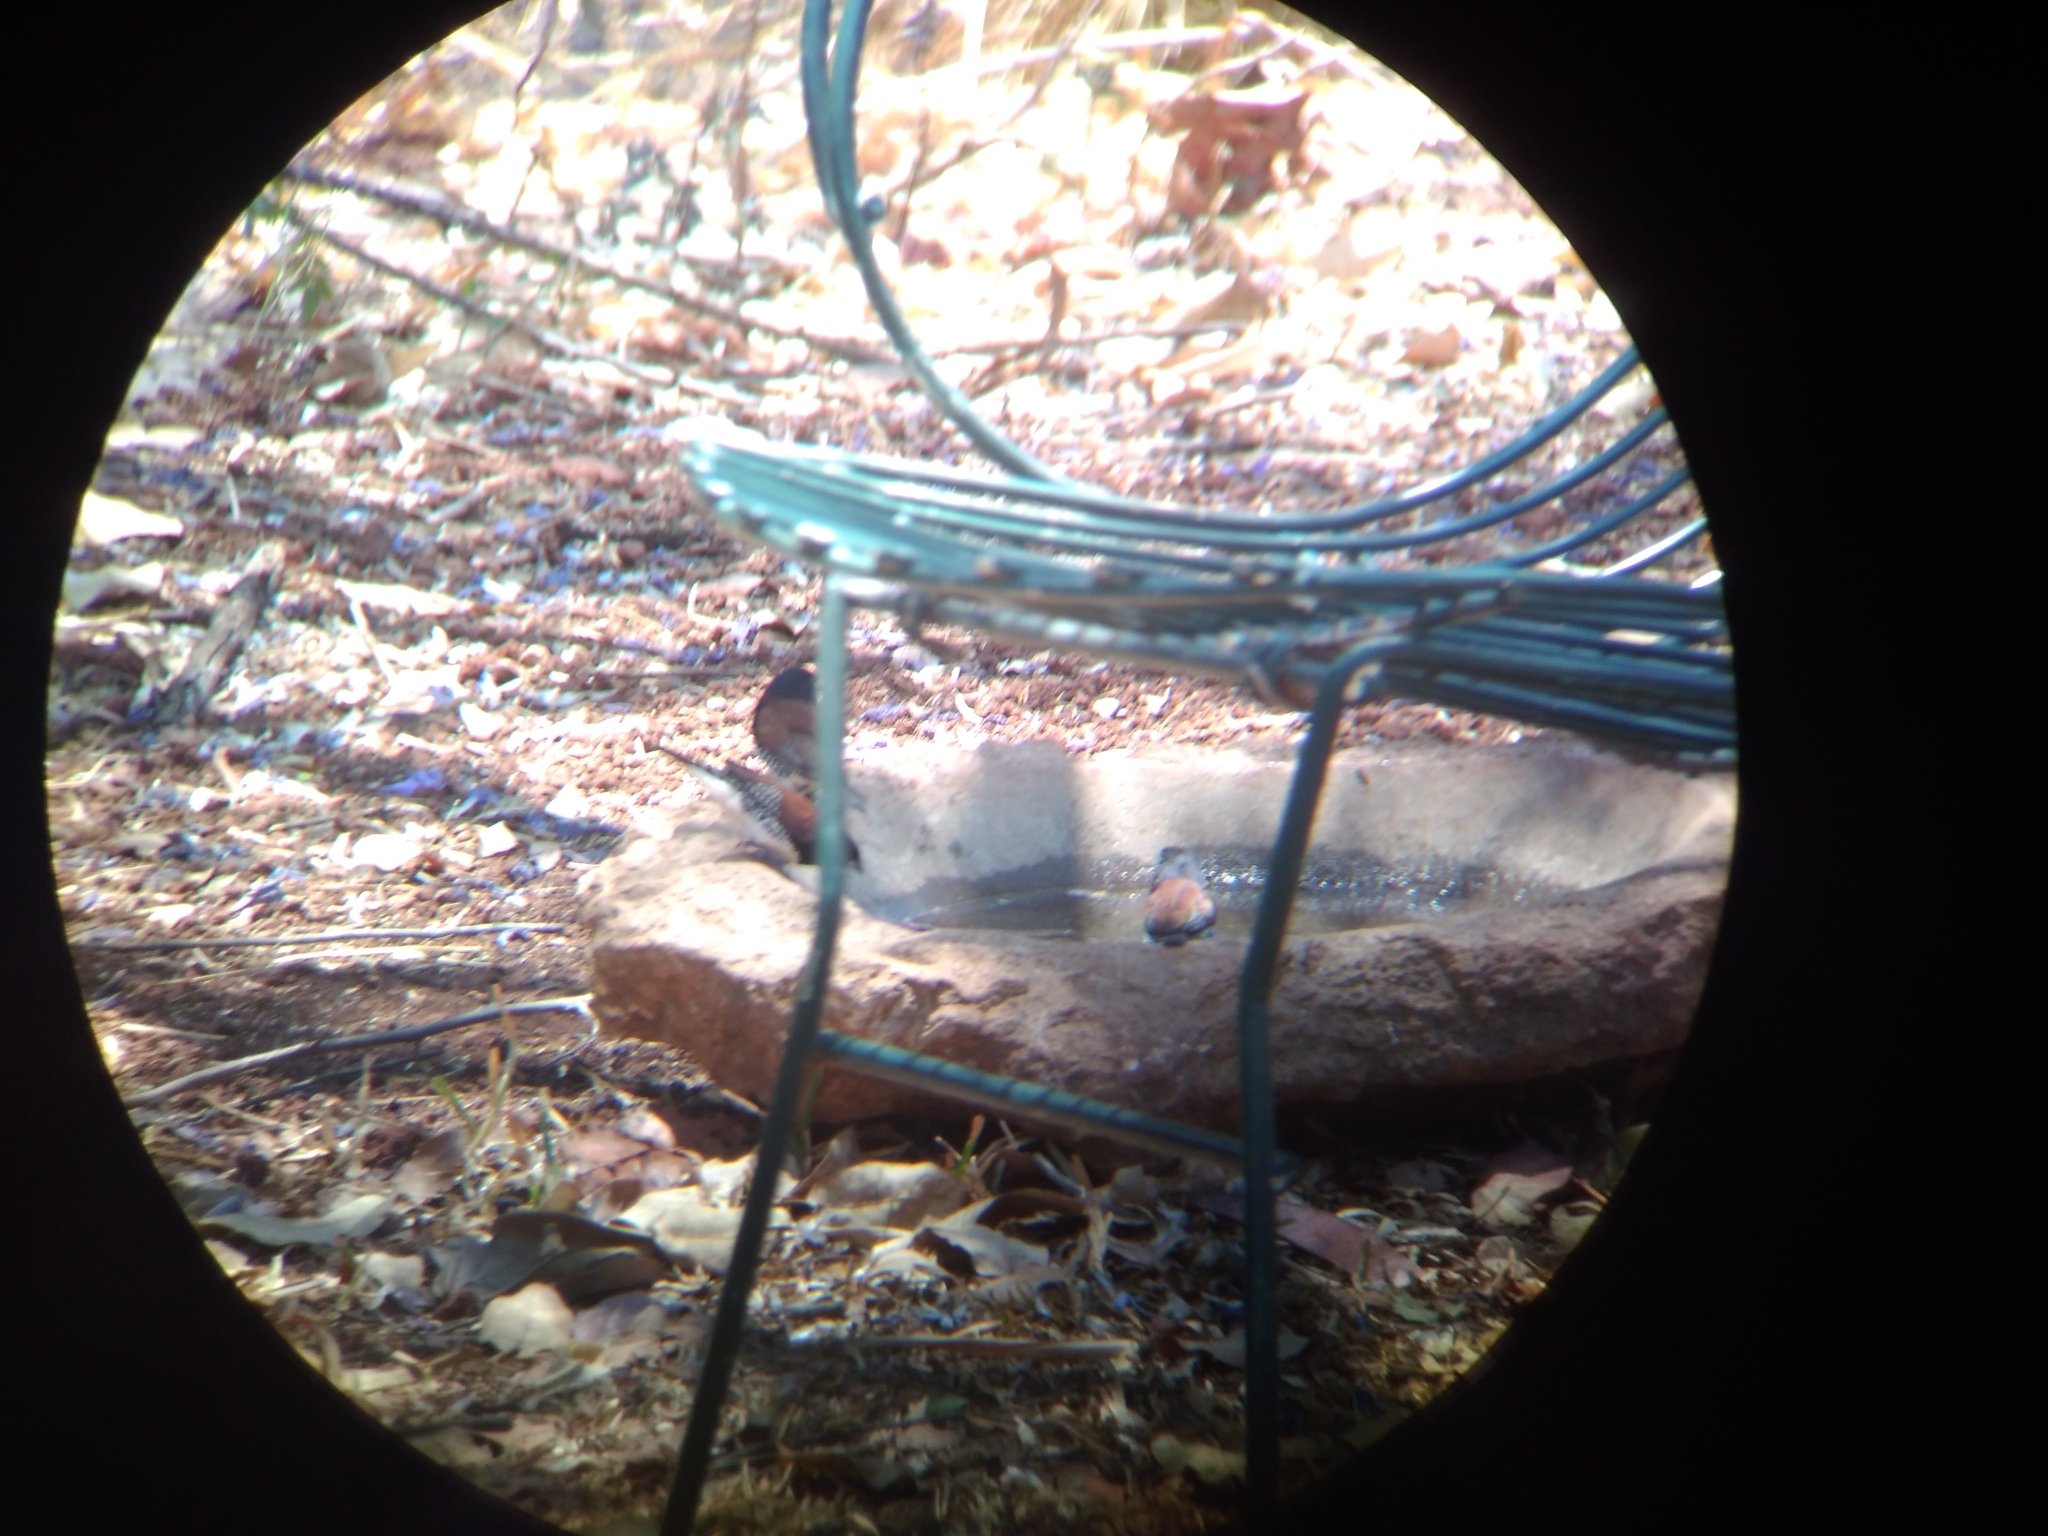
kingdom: Animalia
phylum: Chordata
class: Aves
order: Passeriformes
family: Estrildidae
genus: Lonchura
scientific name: Lonchura nigriceps
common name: Red-backed mannikin
